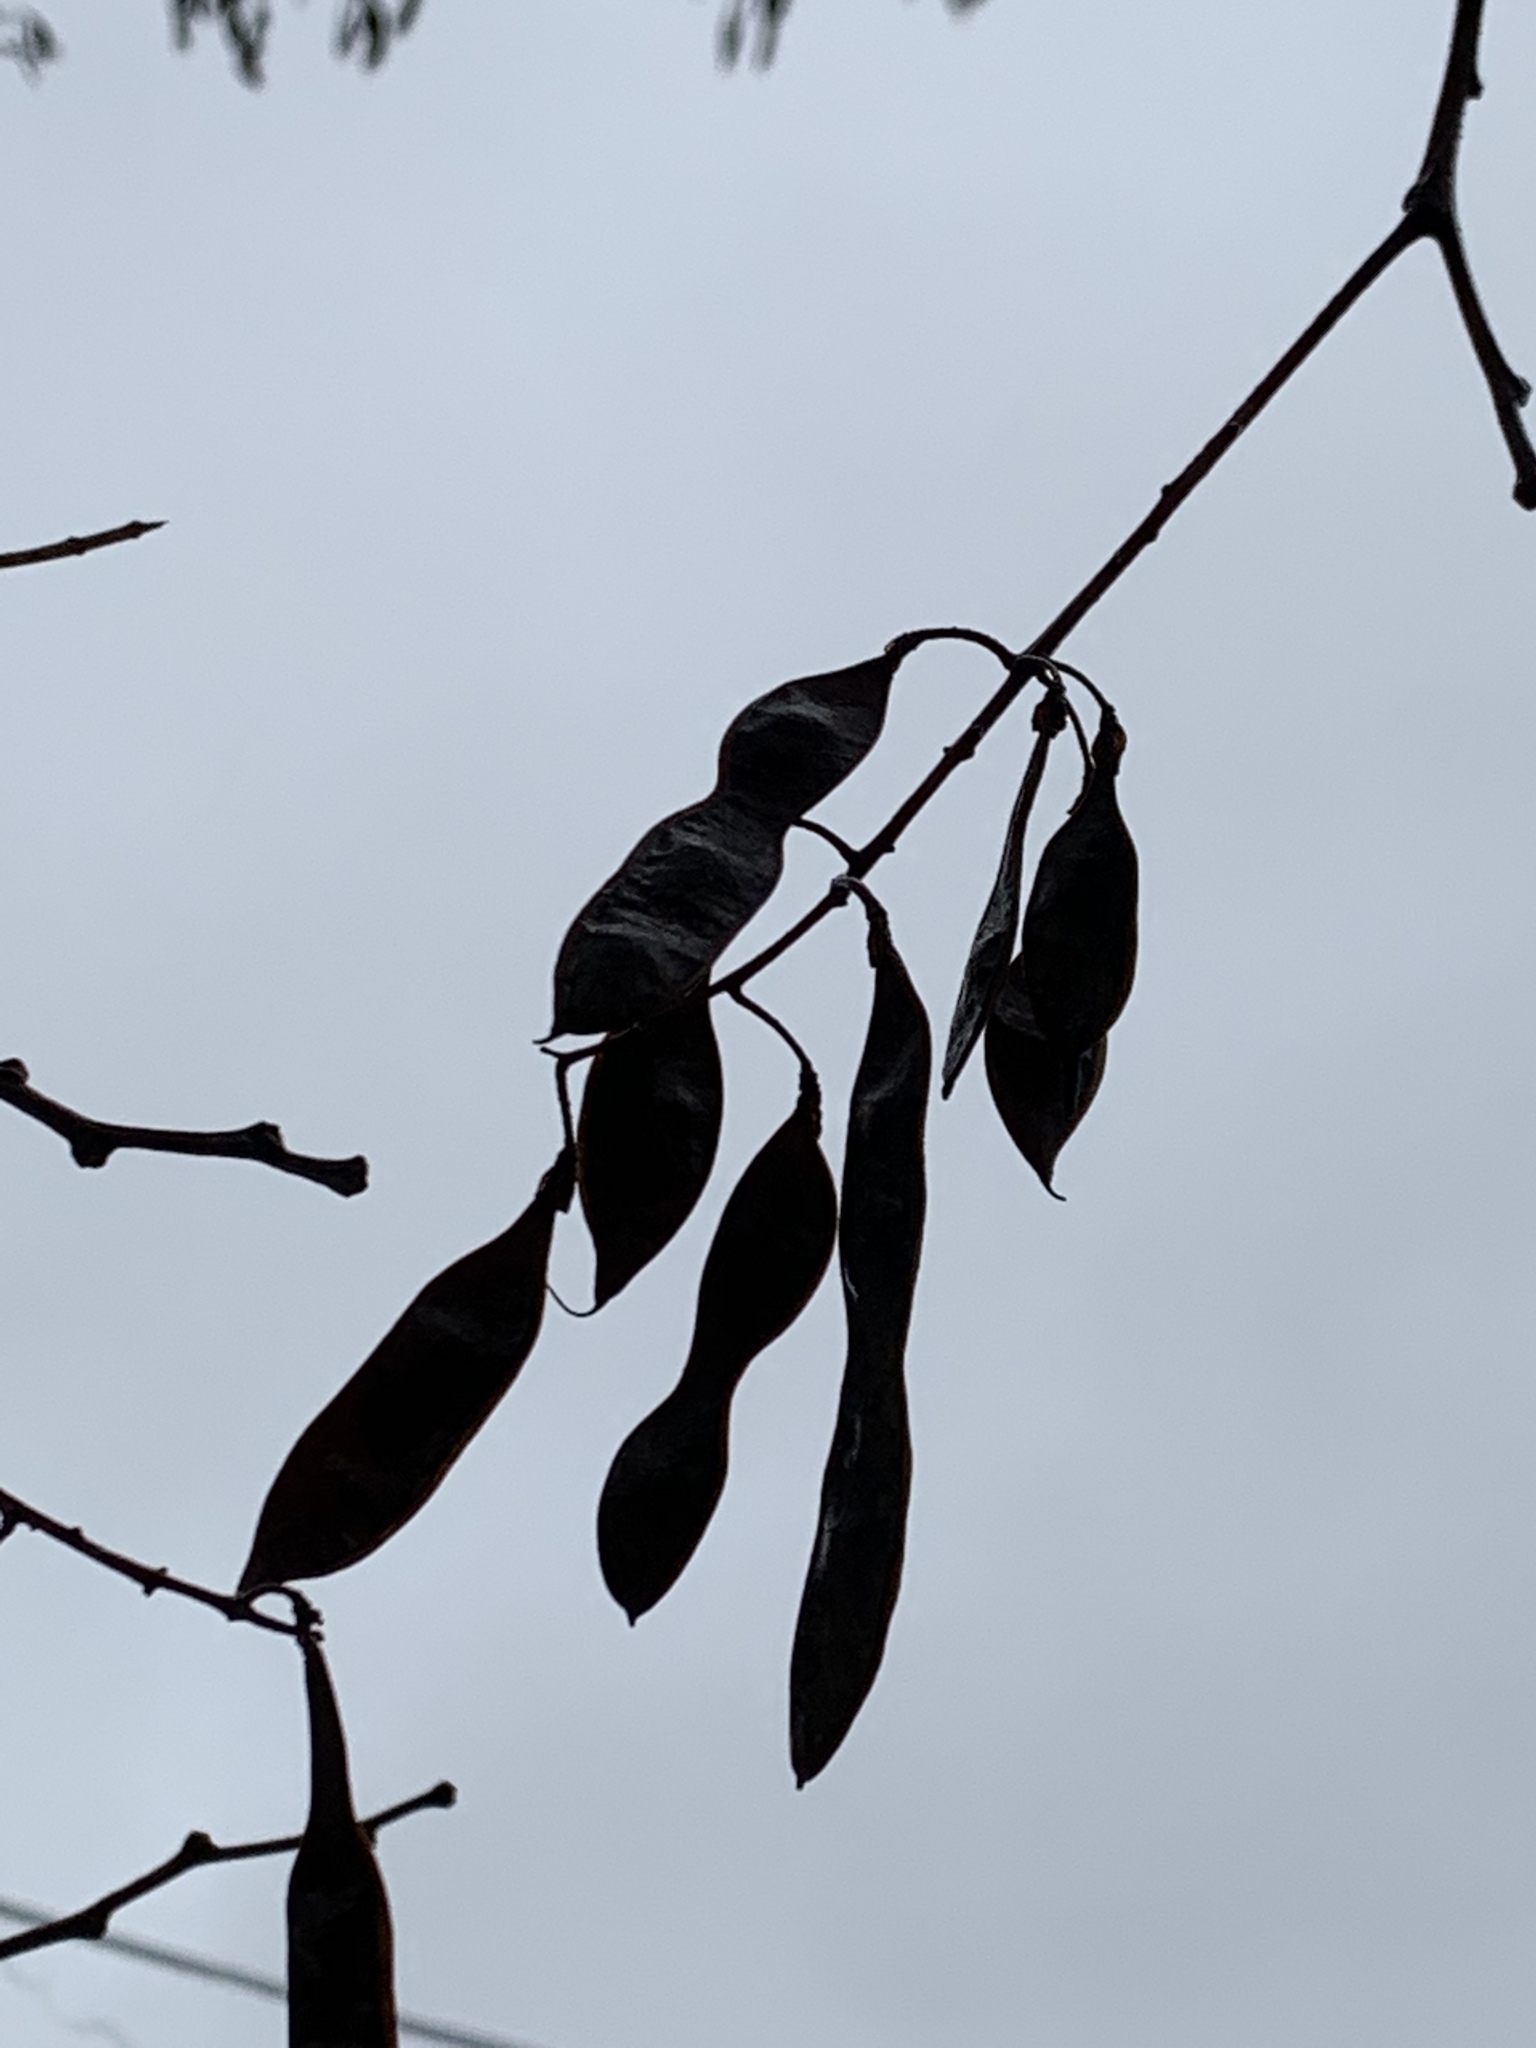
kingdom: Plantae
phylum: Tracheophyta
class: Magnoliopsida
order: Fabales
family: Fabaceae
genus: Robinia
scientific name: Robinia pseudoacacia
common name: Black locust
